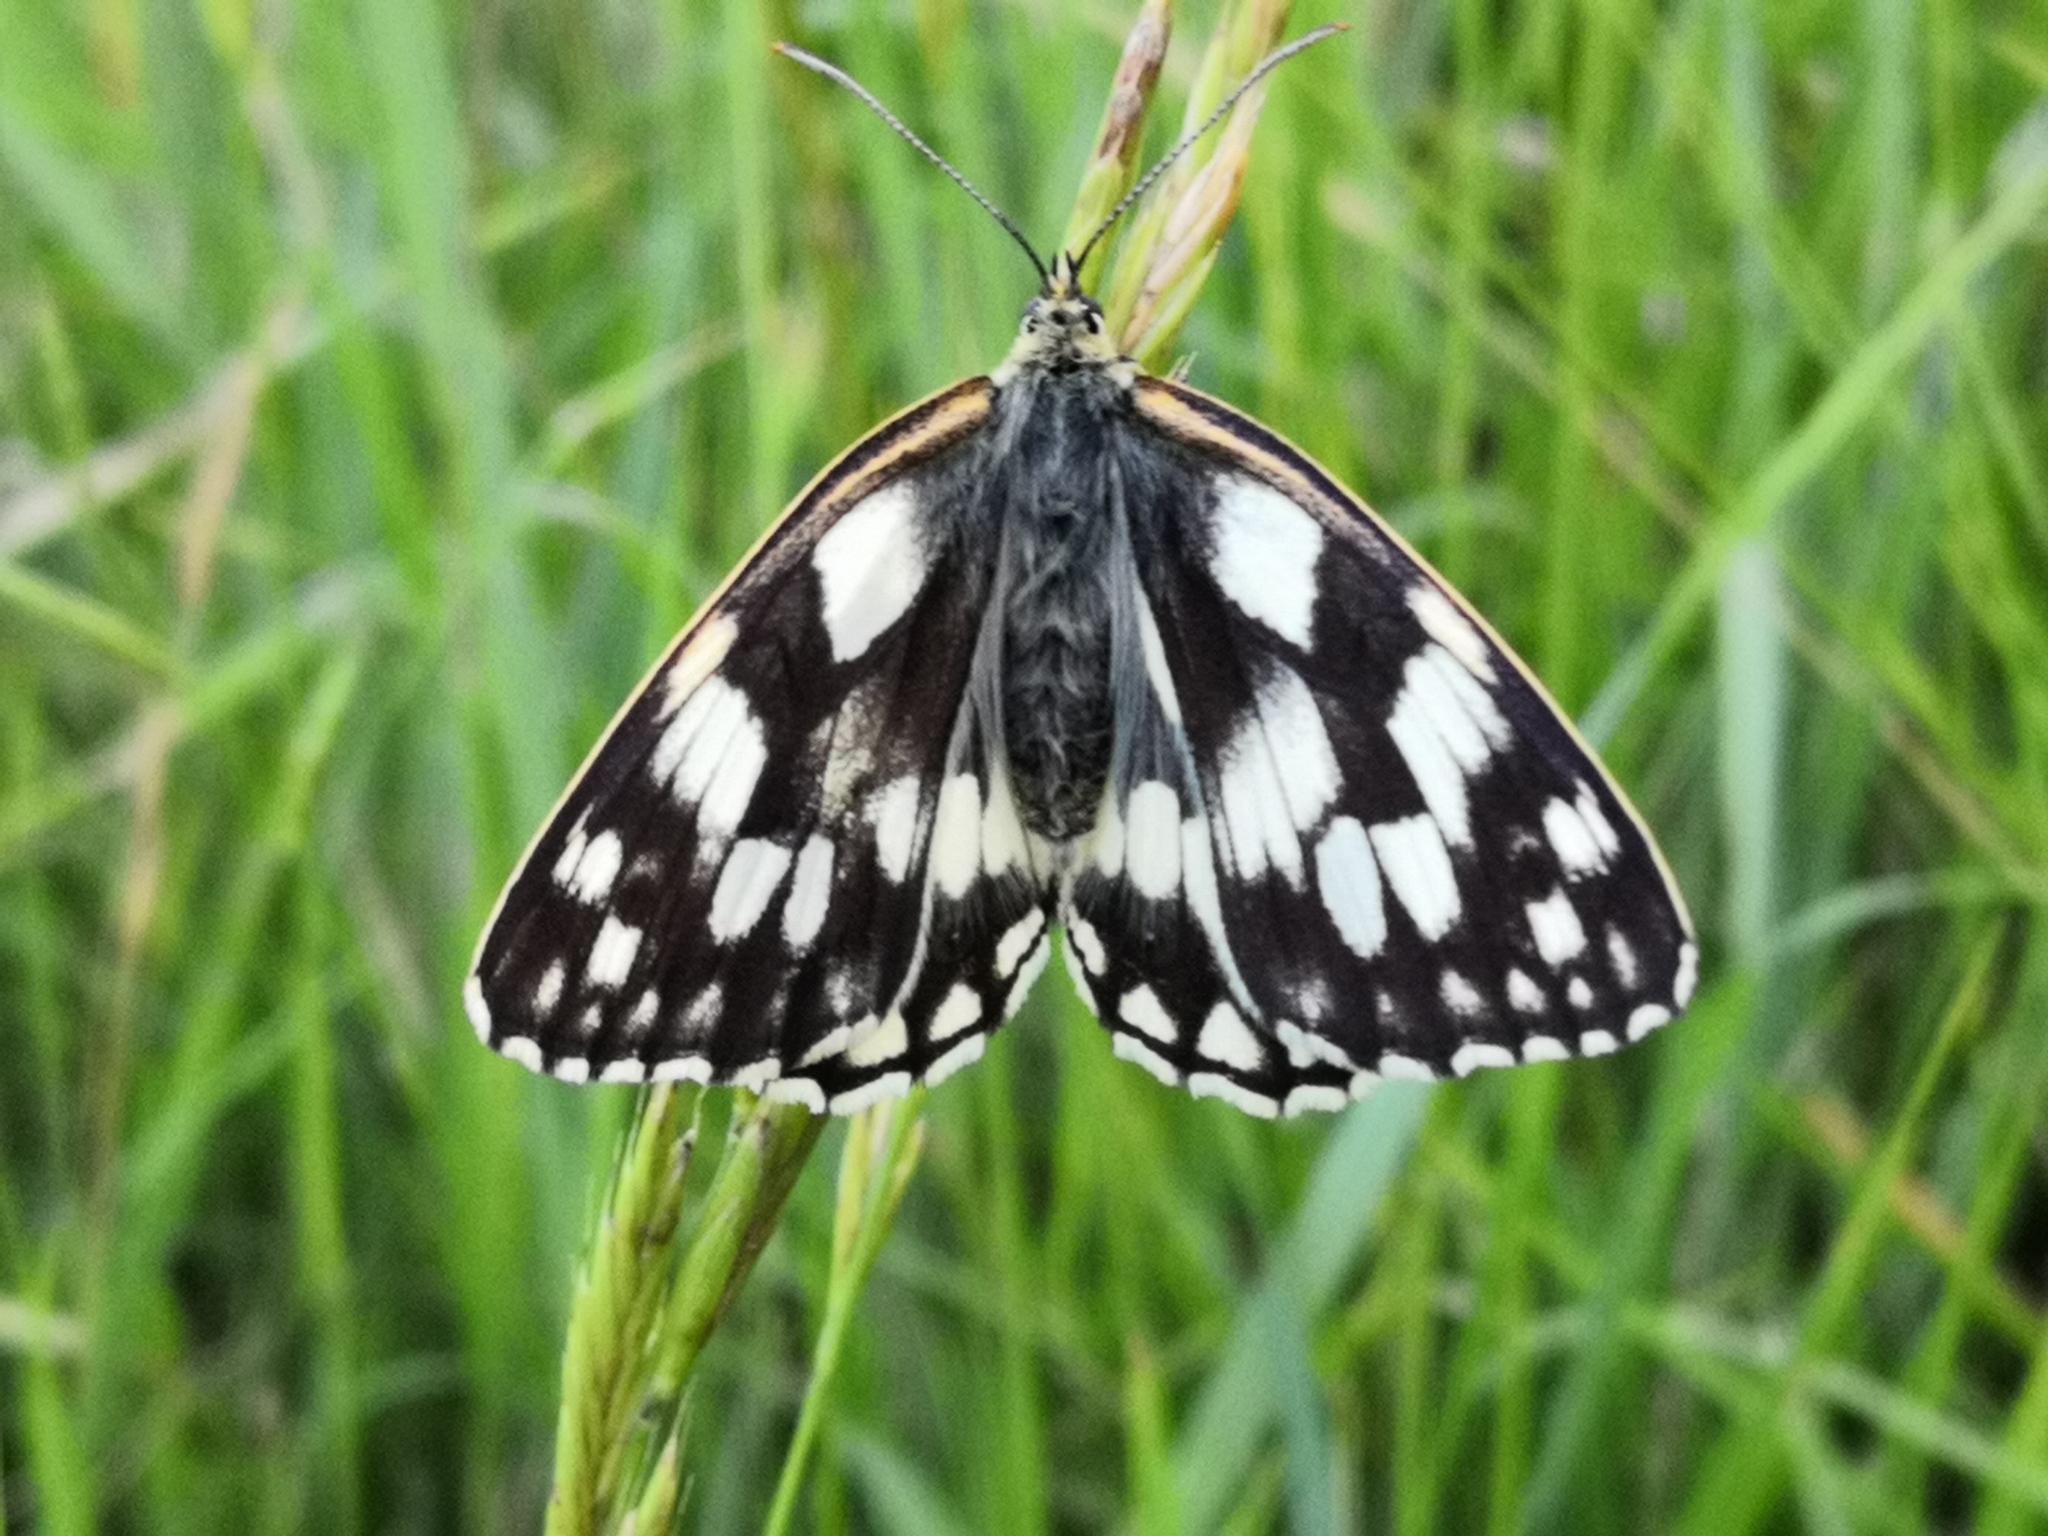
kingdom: Animalia
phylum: Arthropoda
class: Insecta
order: Lepidoptera
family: Nymphalidae
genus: Melanargia
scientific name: Melanargia galathea
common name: Marbled white
